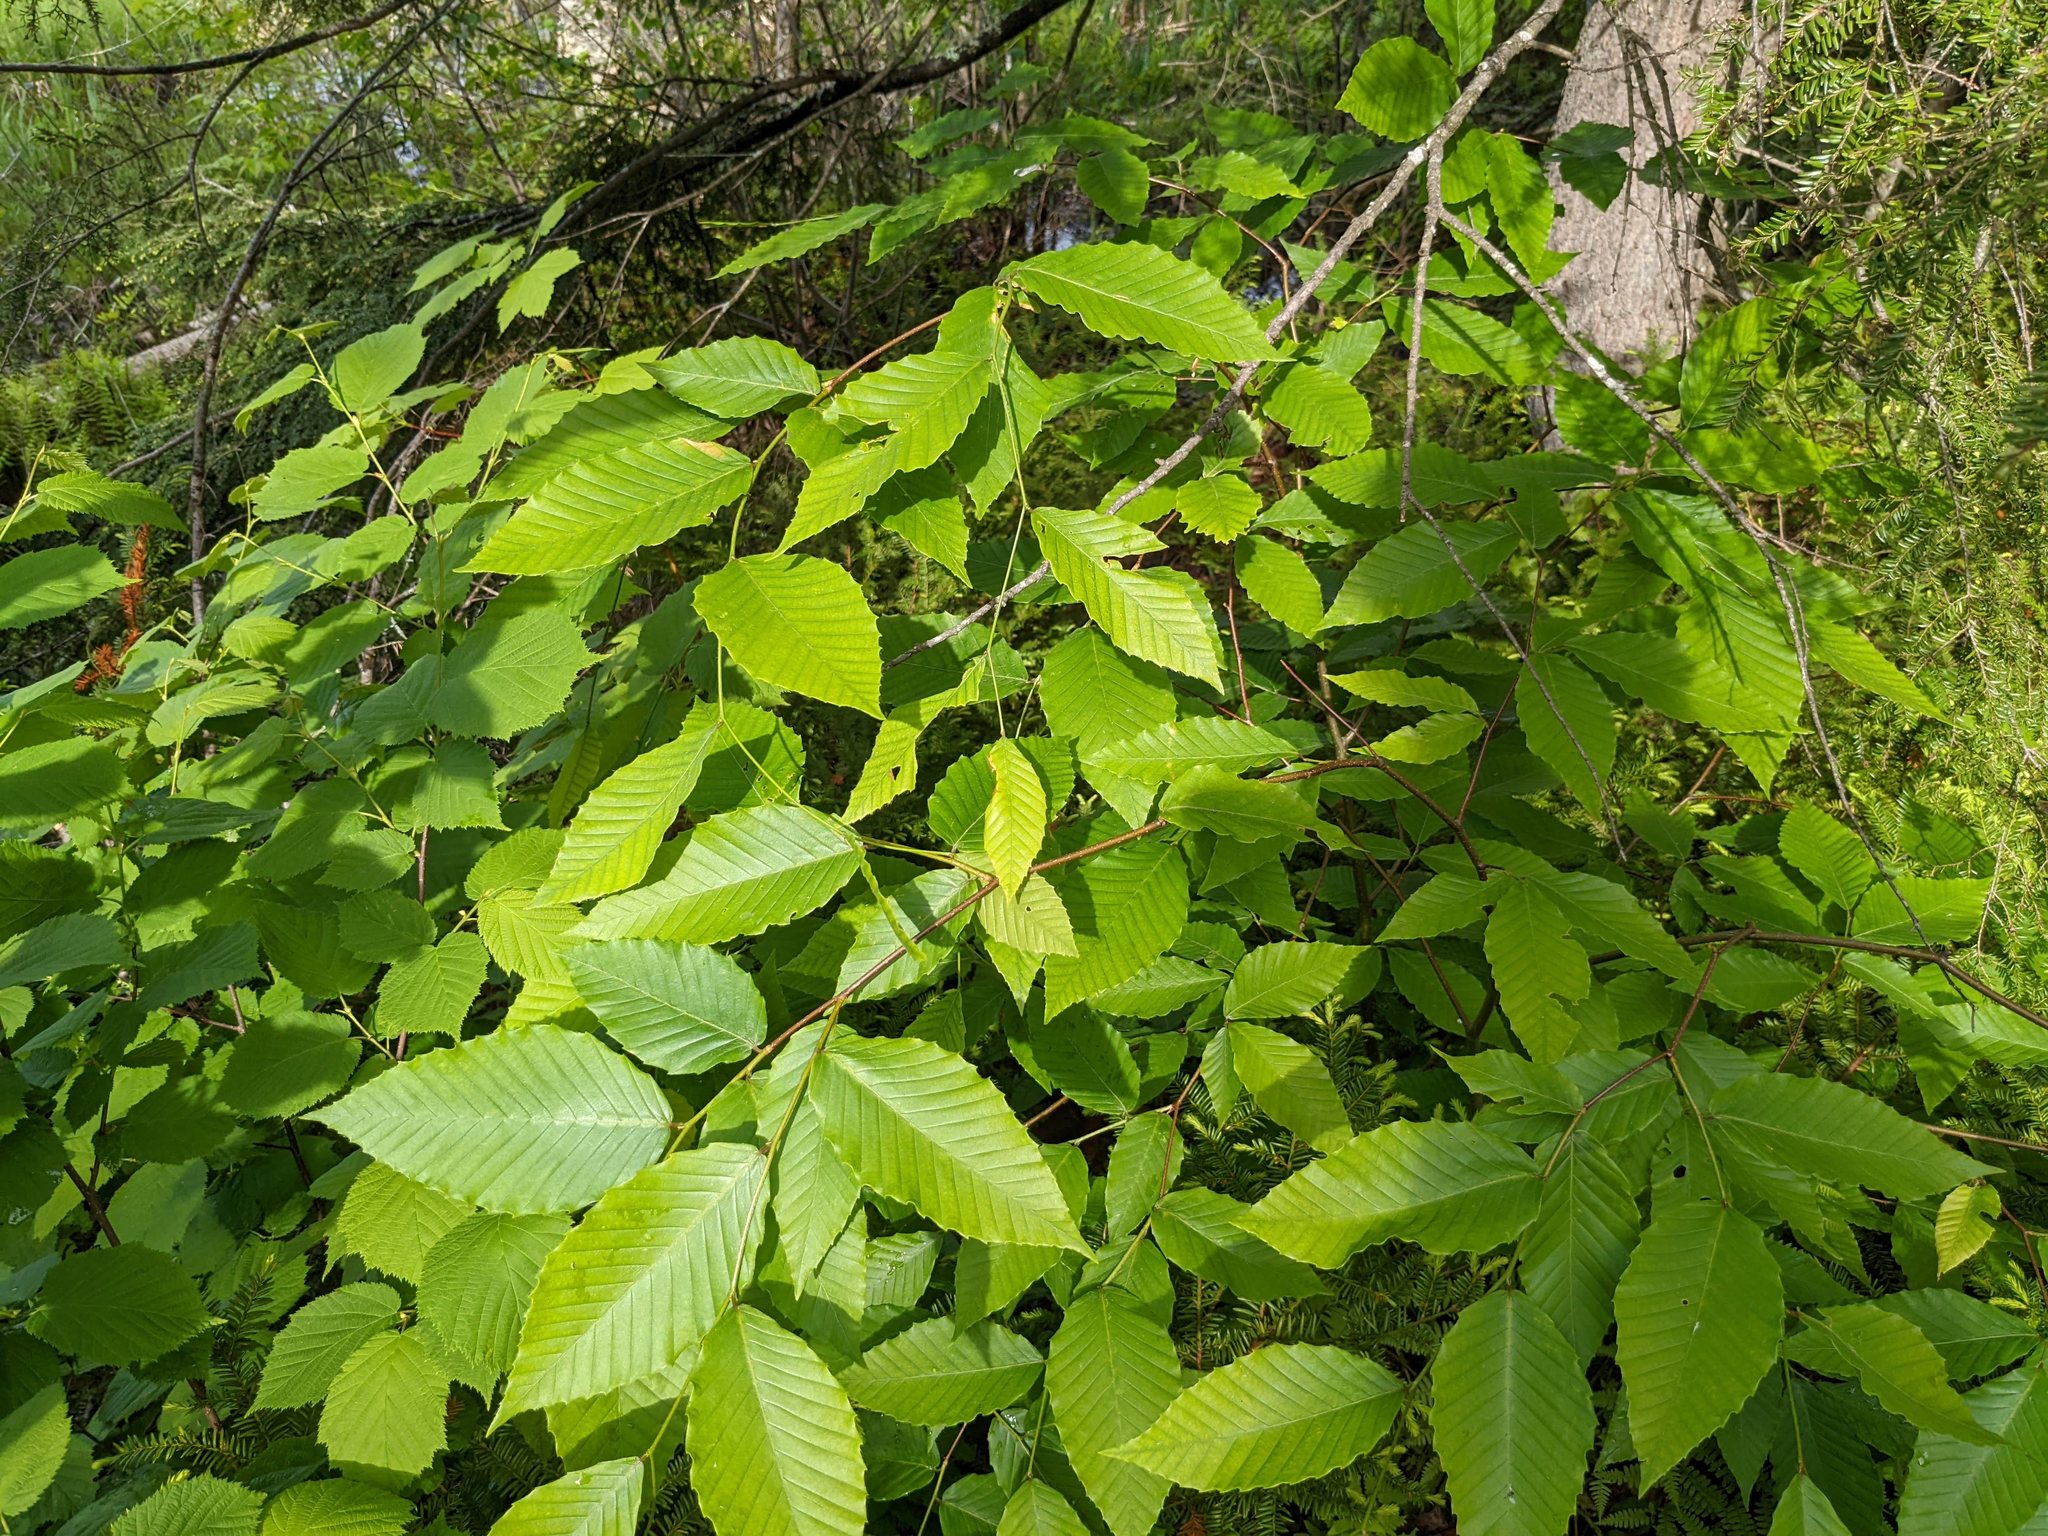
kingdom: Plantae
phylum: Tracheophyta
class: Magnoliopsida
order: Fagales
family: Fagaceae
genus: Fagus
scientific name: Fagus grandifolia
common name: American beech
